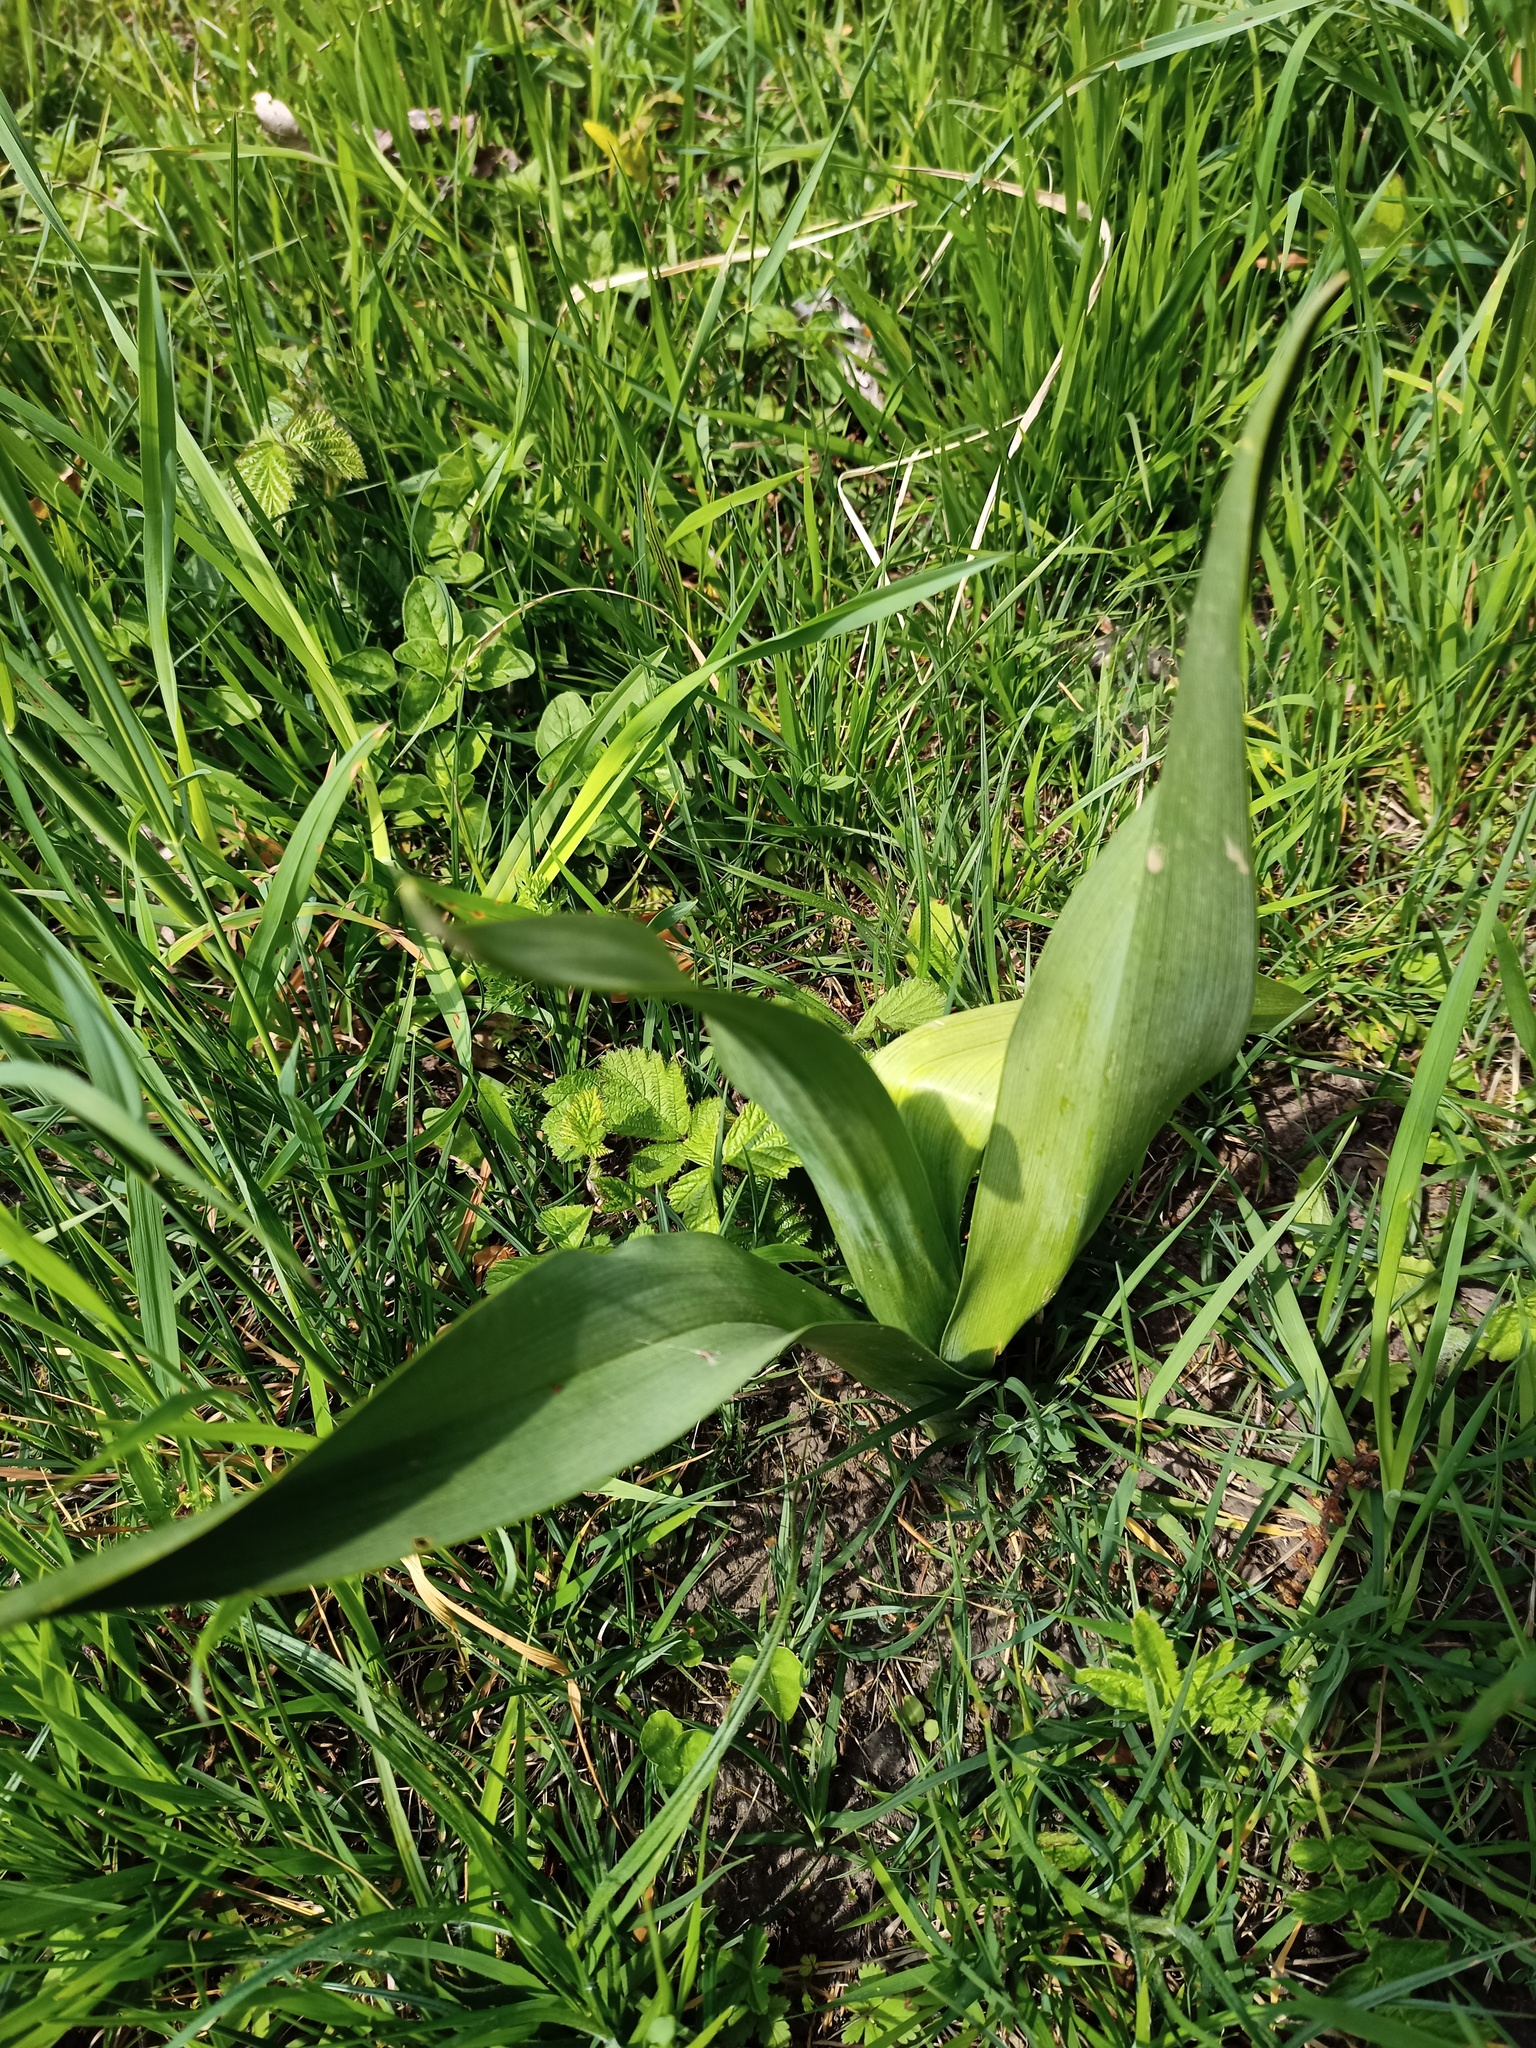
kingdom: Plantae
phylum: Tracheophyta
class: Liliopsida
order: Liliales
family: Colchicaceae
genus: Colchicum
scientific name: Colchicum autumnale
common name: Autumn crocus
